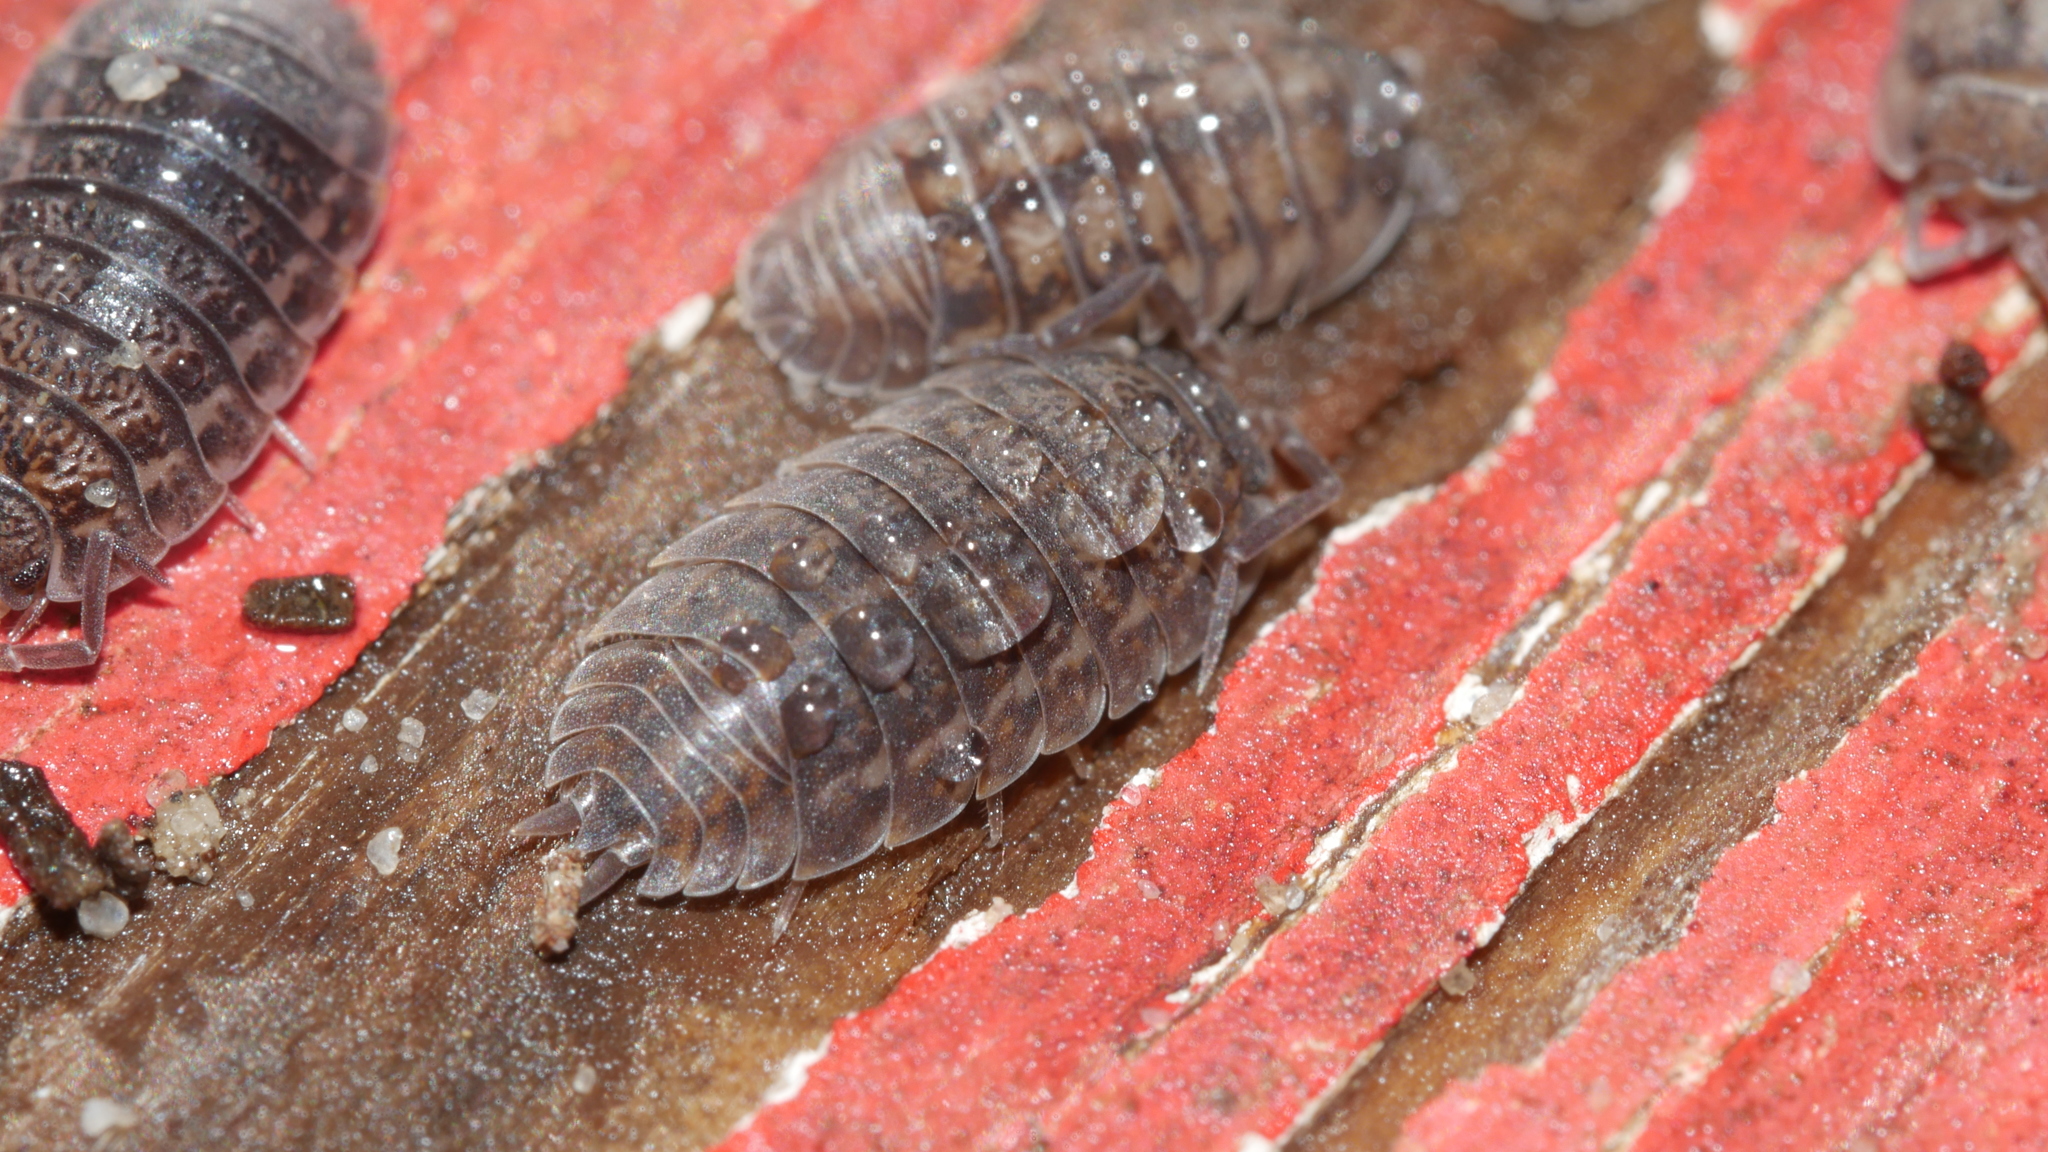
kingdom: Animalia
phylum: Arthropoda
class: Malacostraca
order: Isopoda
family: Trachelipodidae
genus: Trachelipus
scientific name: Trachelipus rathkii
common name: Isopod
